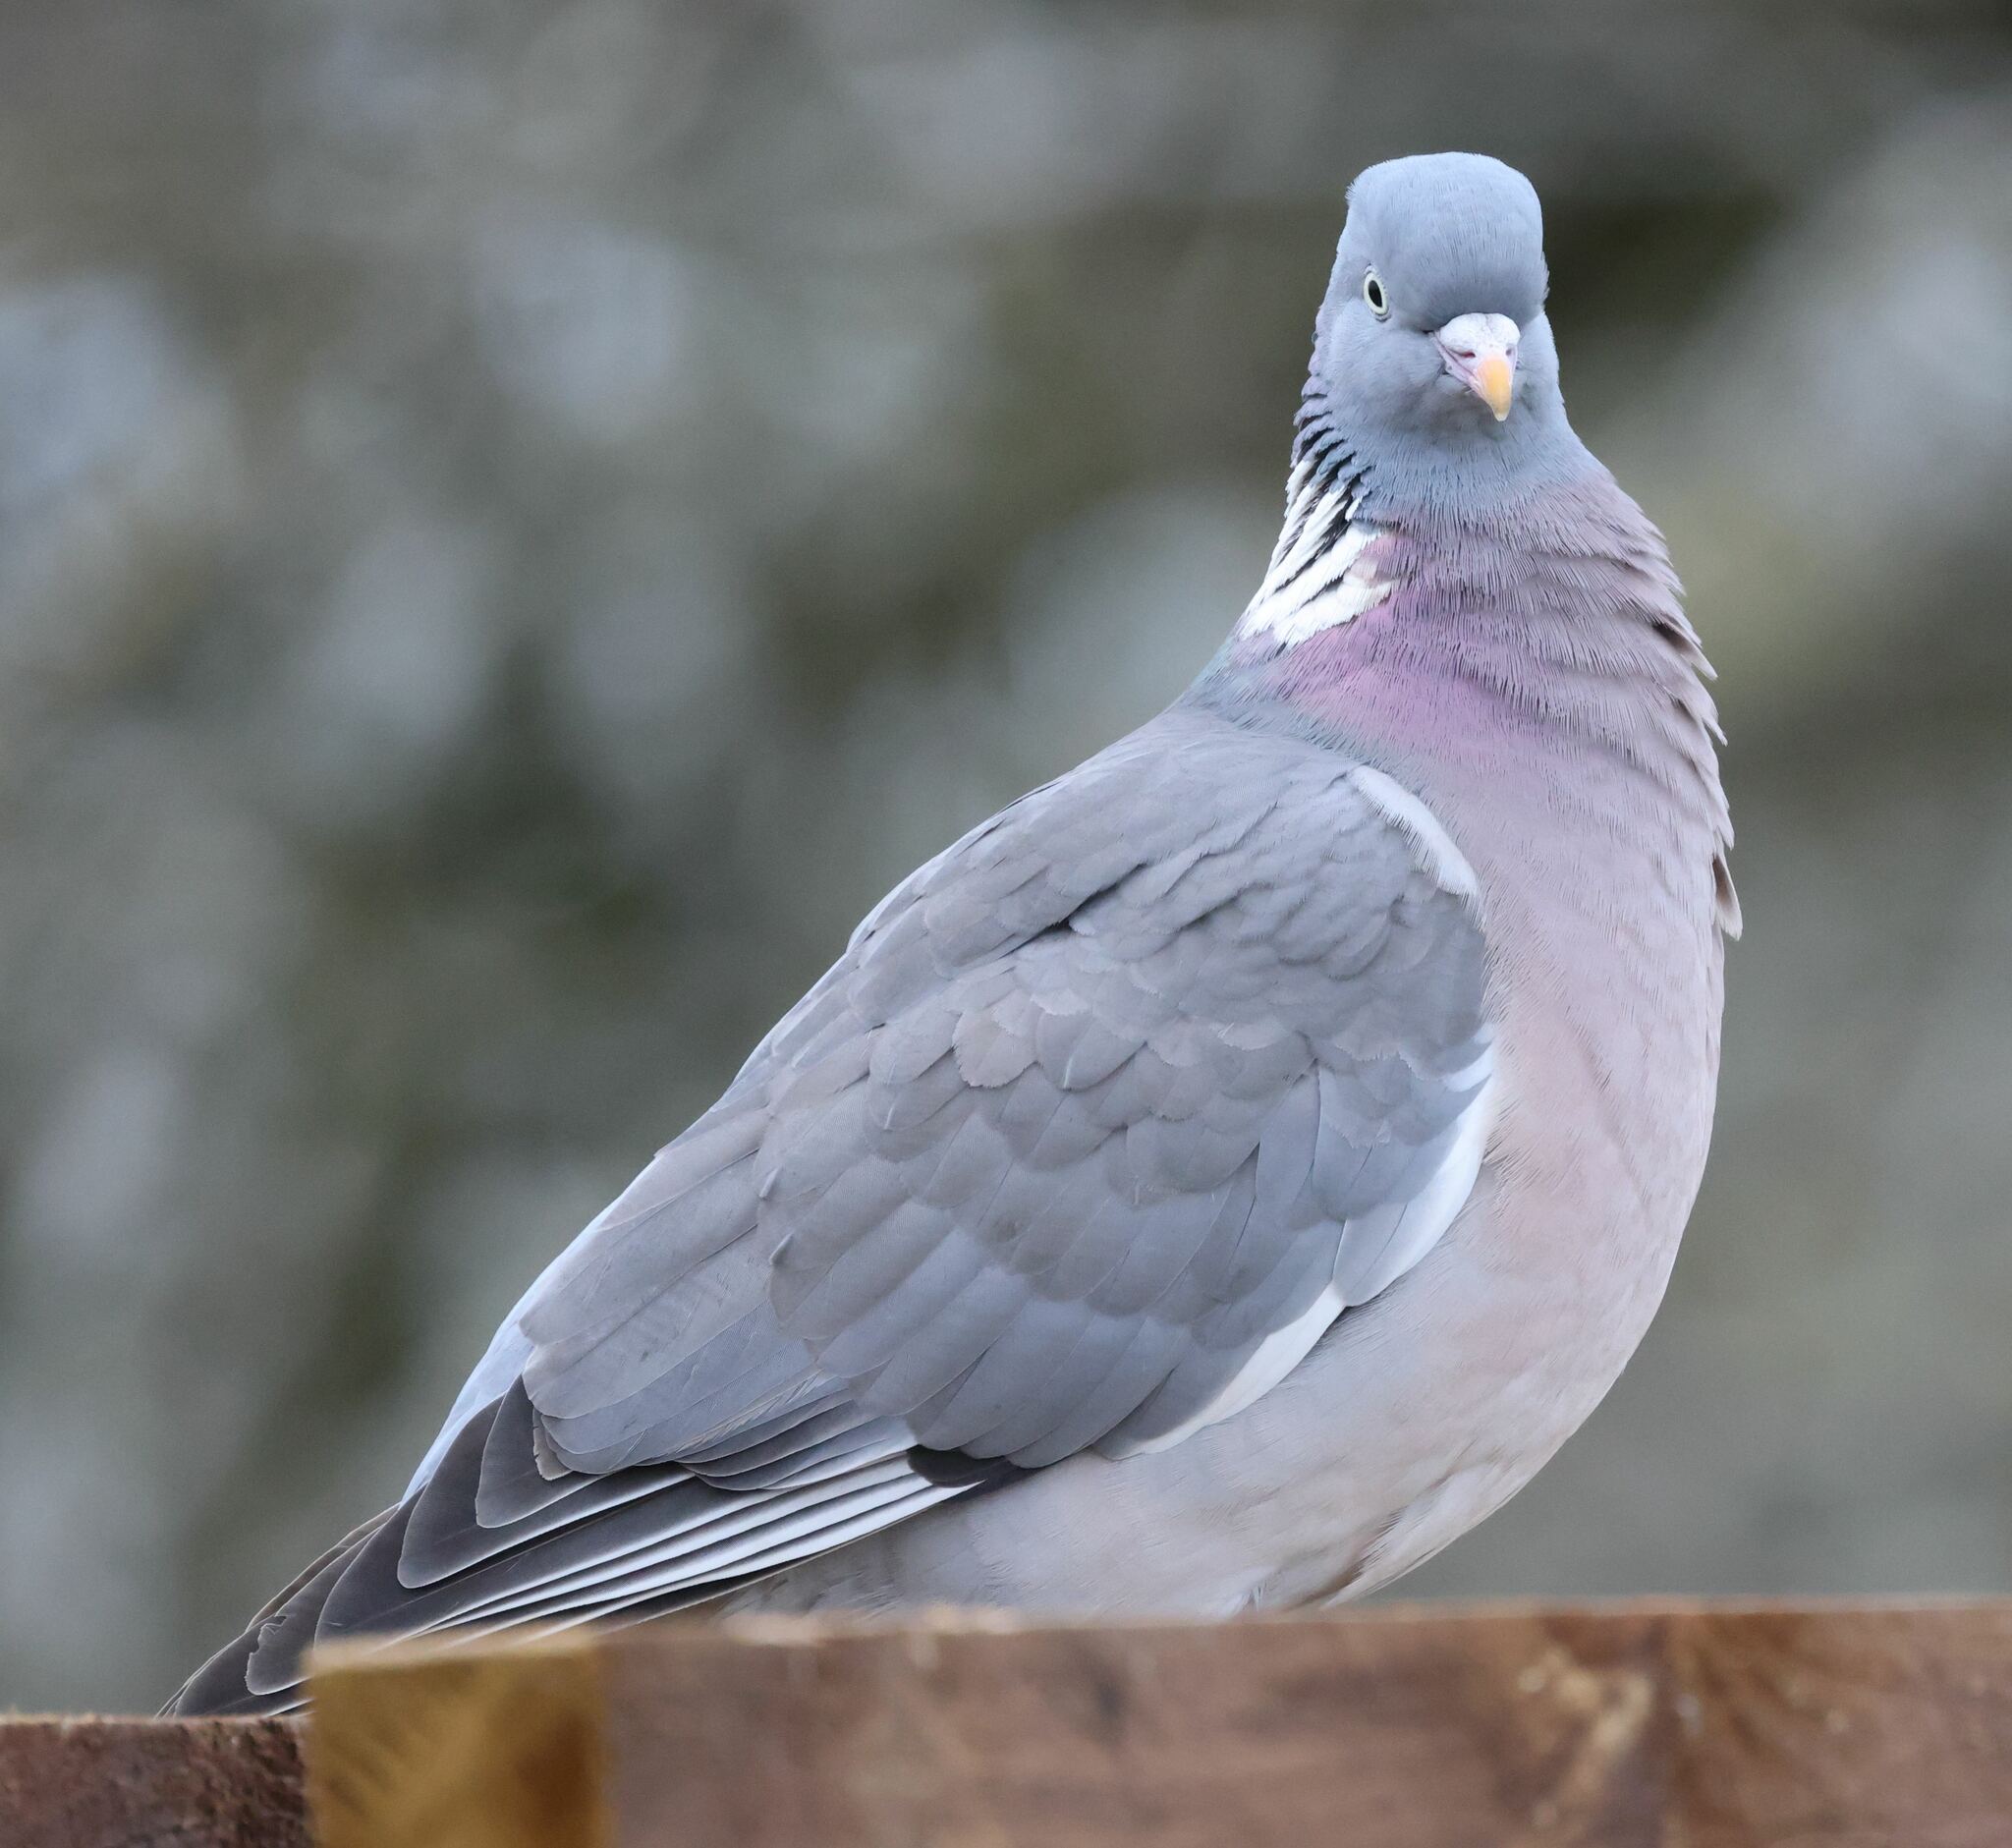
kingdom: Animalia
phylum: Chordata
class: Aves
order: Columbiformes
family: Columbidae
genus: Columba
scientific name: Columba palumbus
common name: Common wood pigeon
